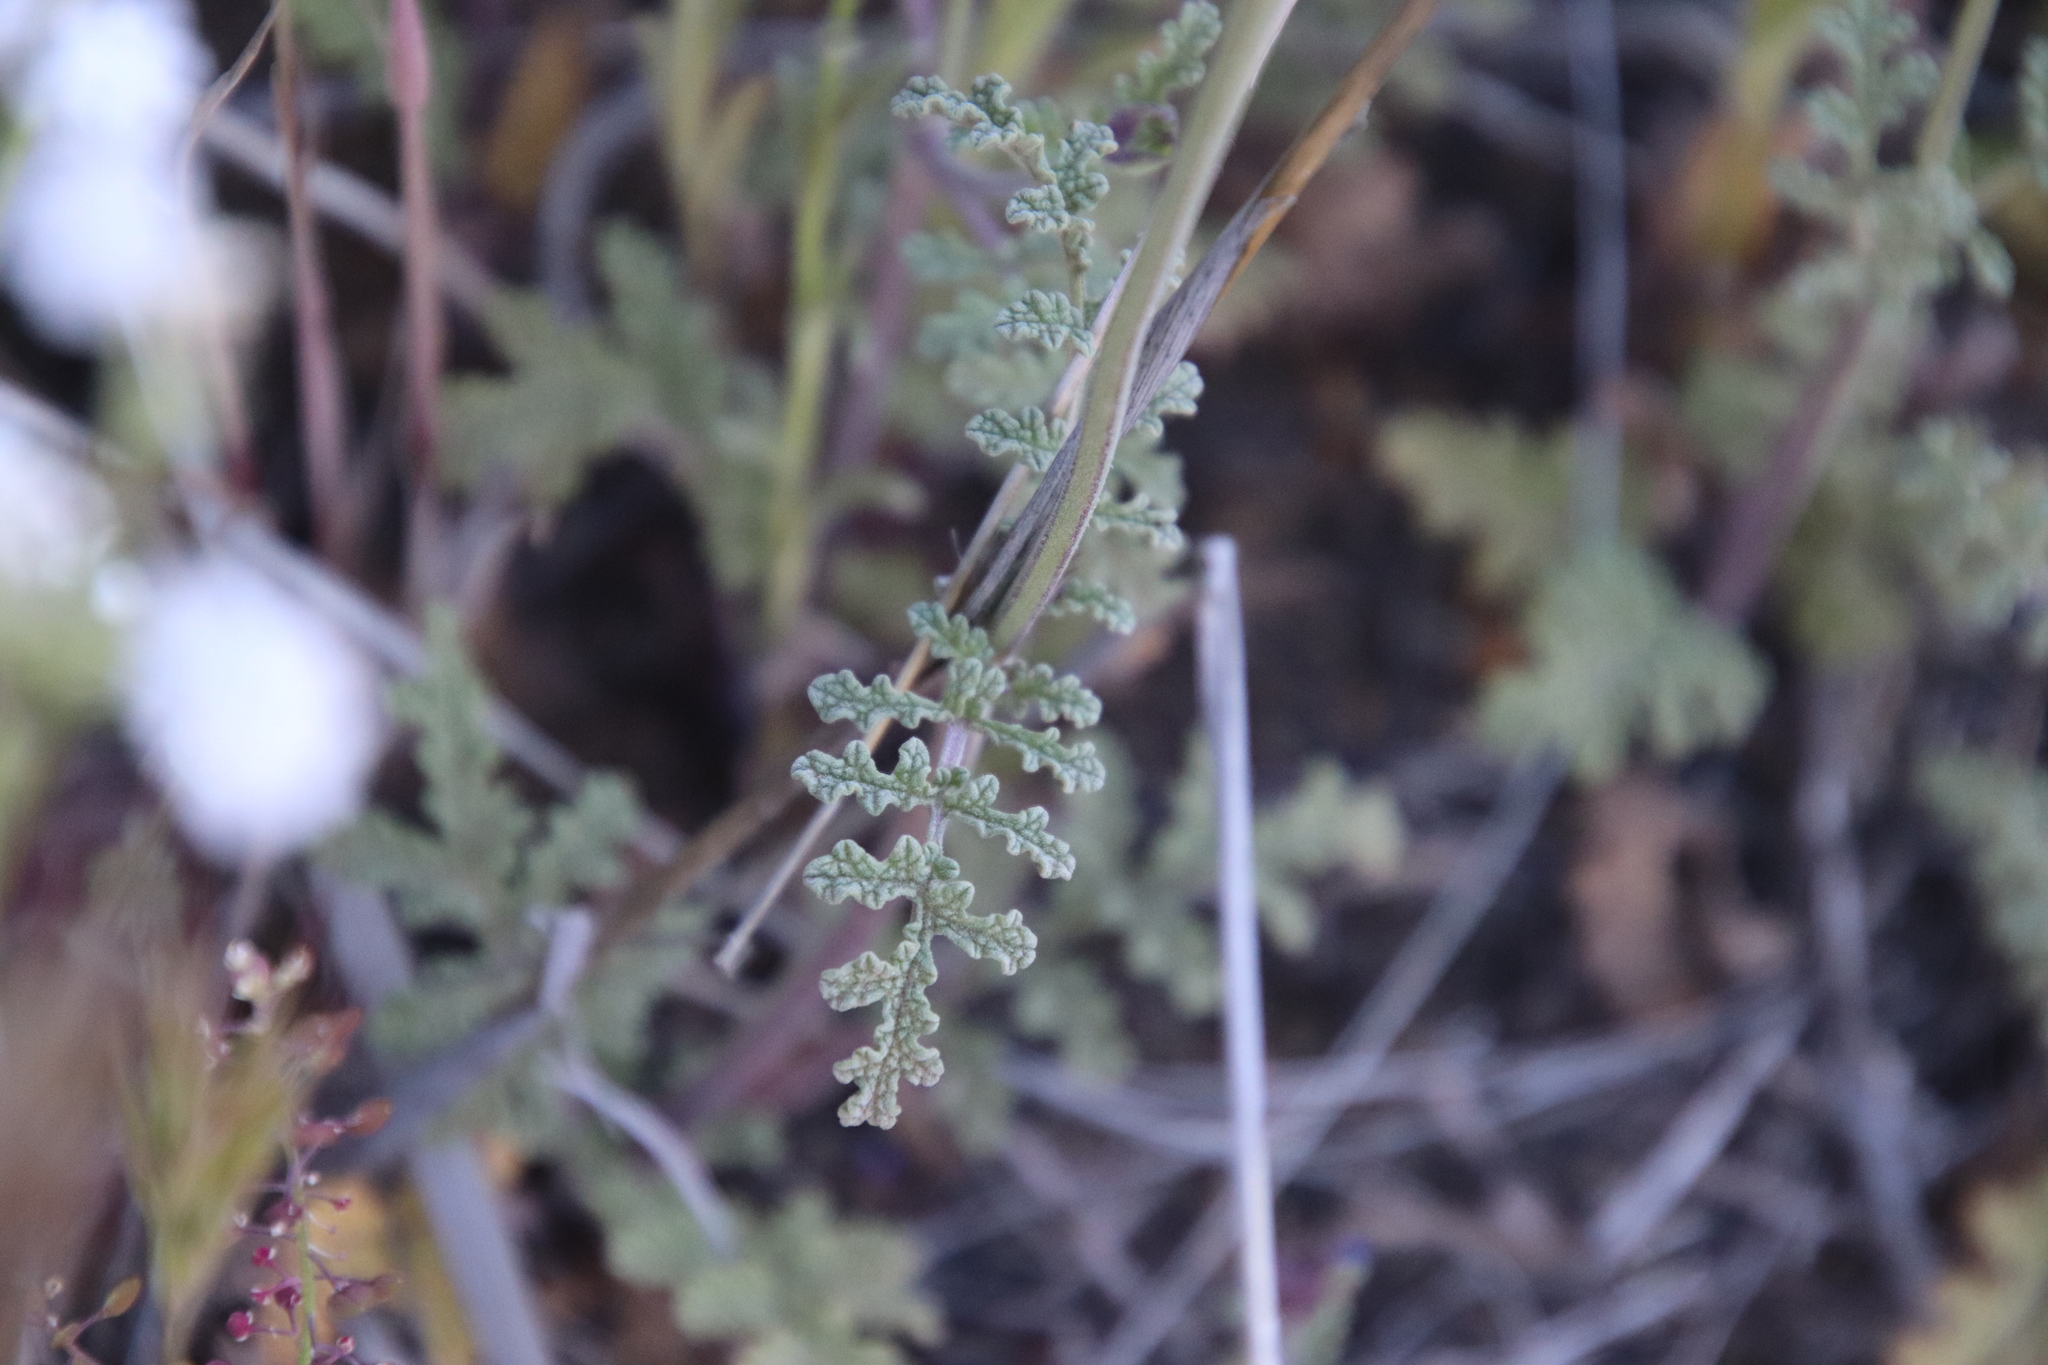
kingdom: Plantae
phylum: Tracheophyta
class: Magnoliopsida
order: Lamiales
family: Lamiaceae
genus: Salvia
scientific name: Salvia columbariae
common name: Chia
